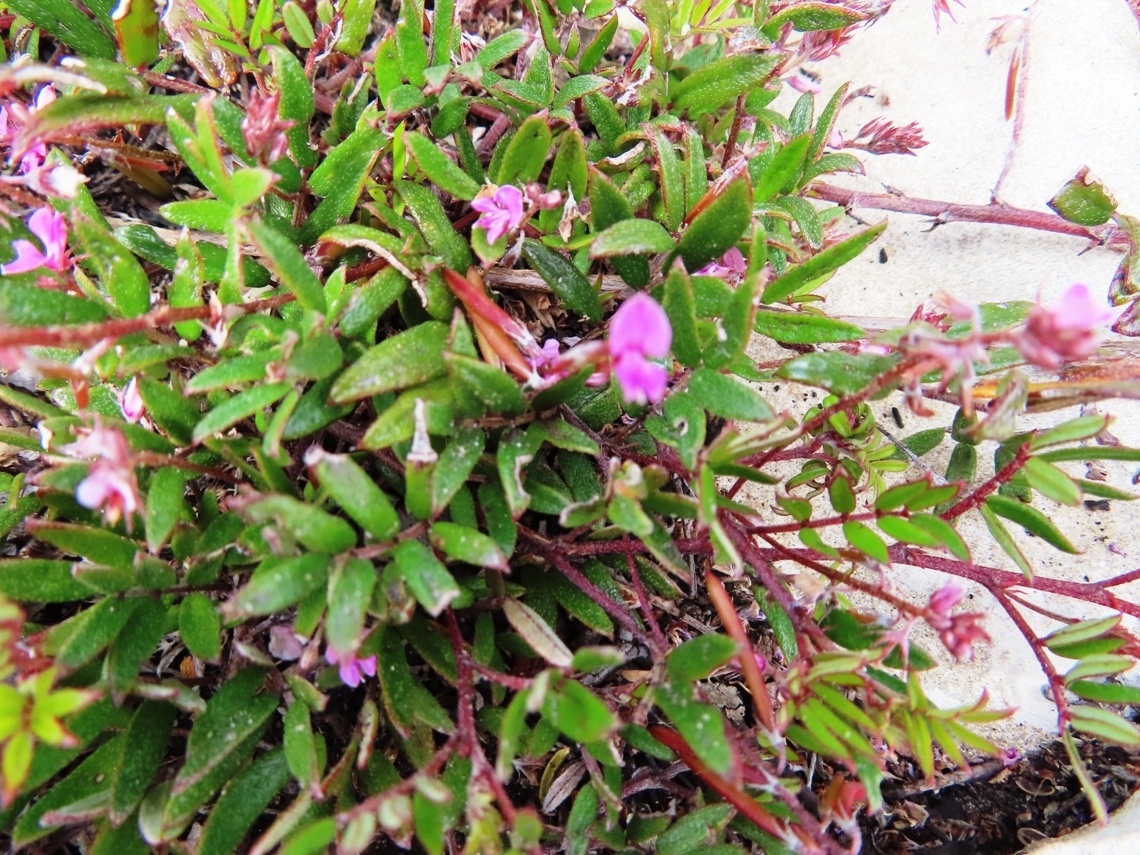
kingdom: Plantae
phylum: Tracheophyta
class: Magnoliopsida
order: Fabales
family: Fabaceae
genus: Indigofera
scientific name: Indigofera mundiana
